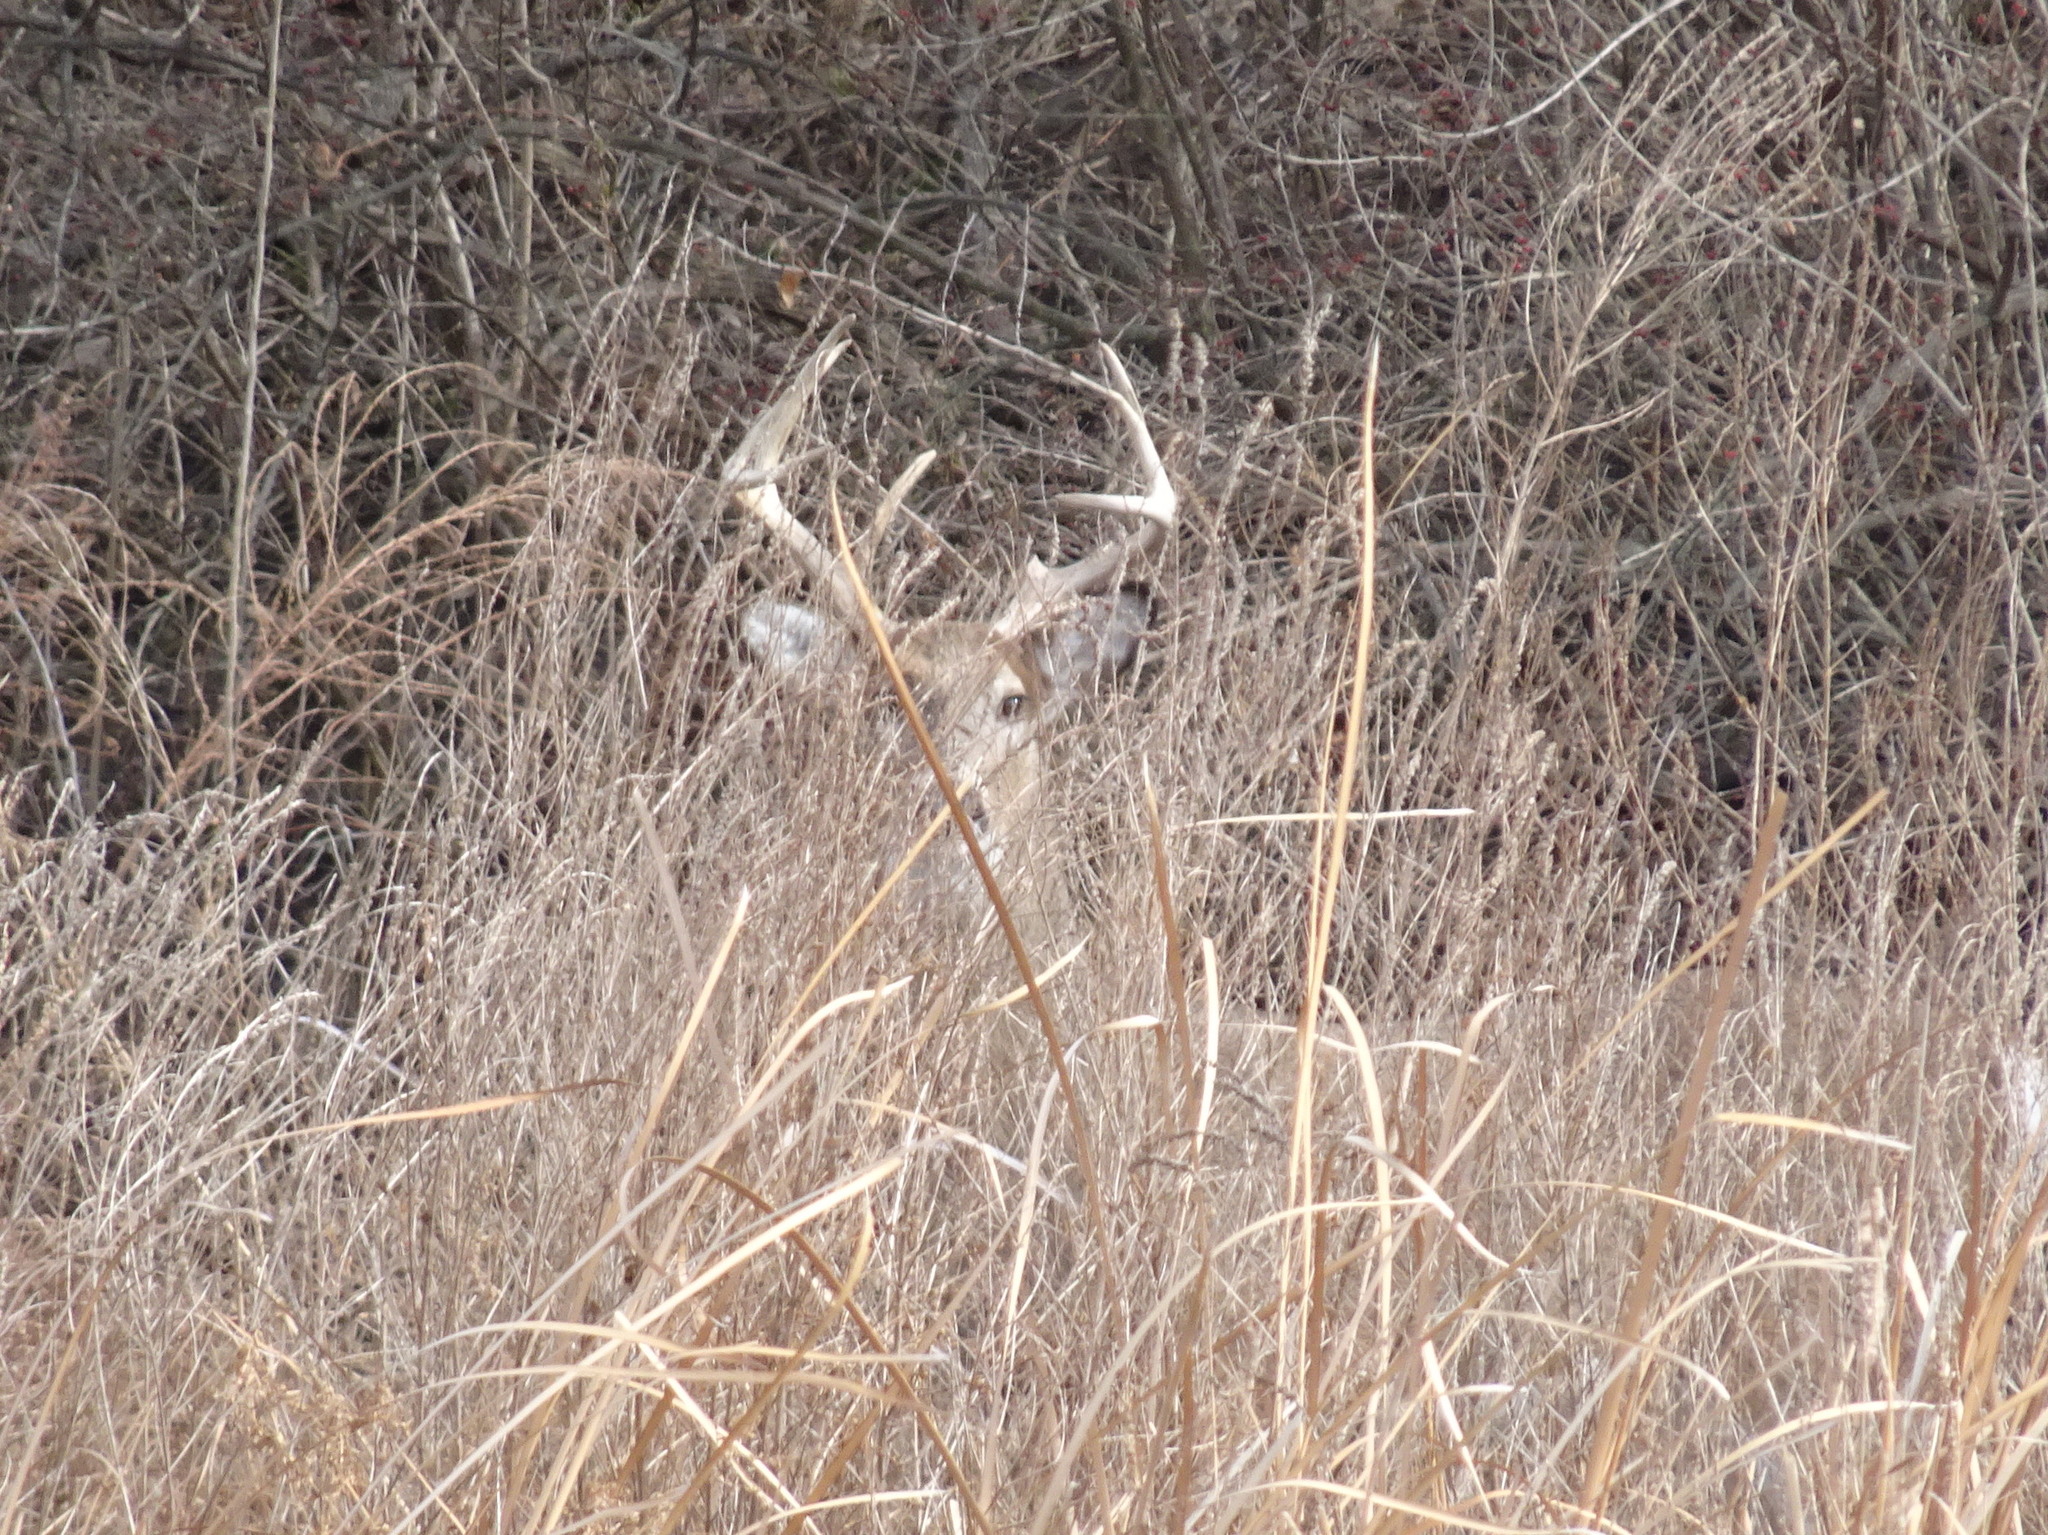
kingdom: Animalia
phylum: Chordata
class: Mammalia
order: Artiodactyla
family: Cervidae
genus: Odocoileus
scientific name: Odocoileus virginianus
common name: White-tailed deer
